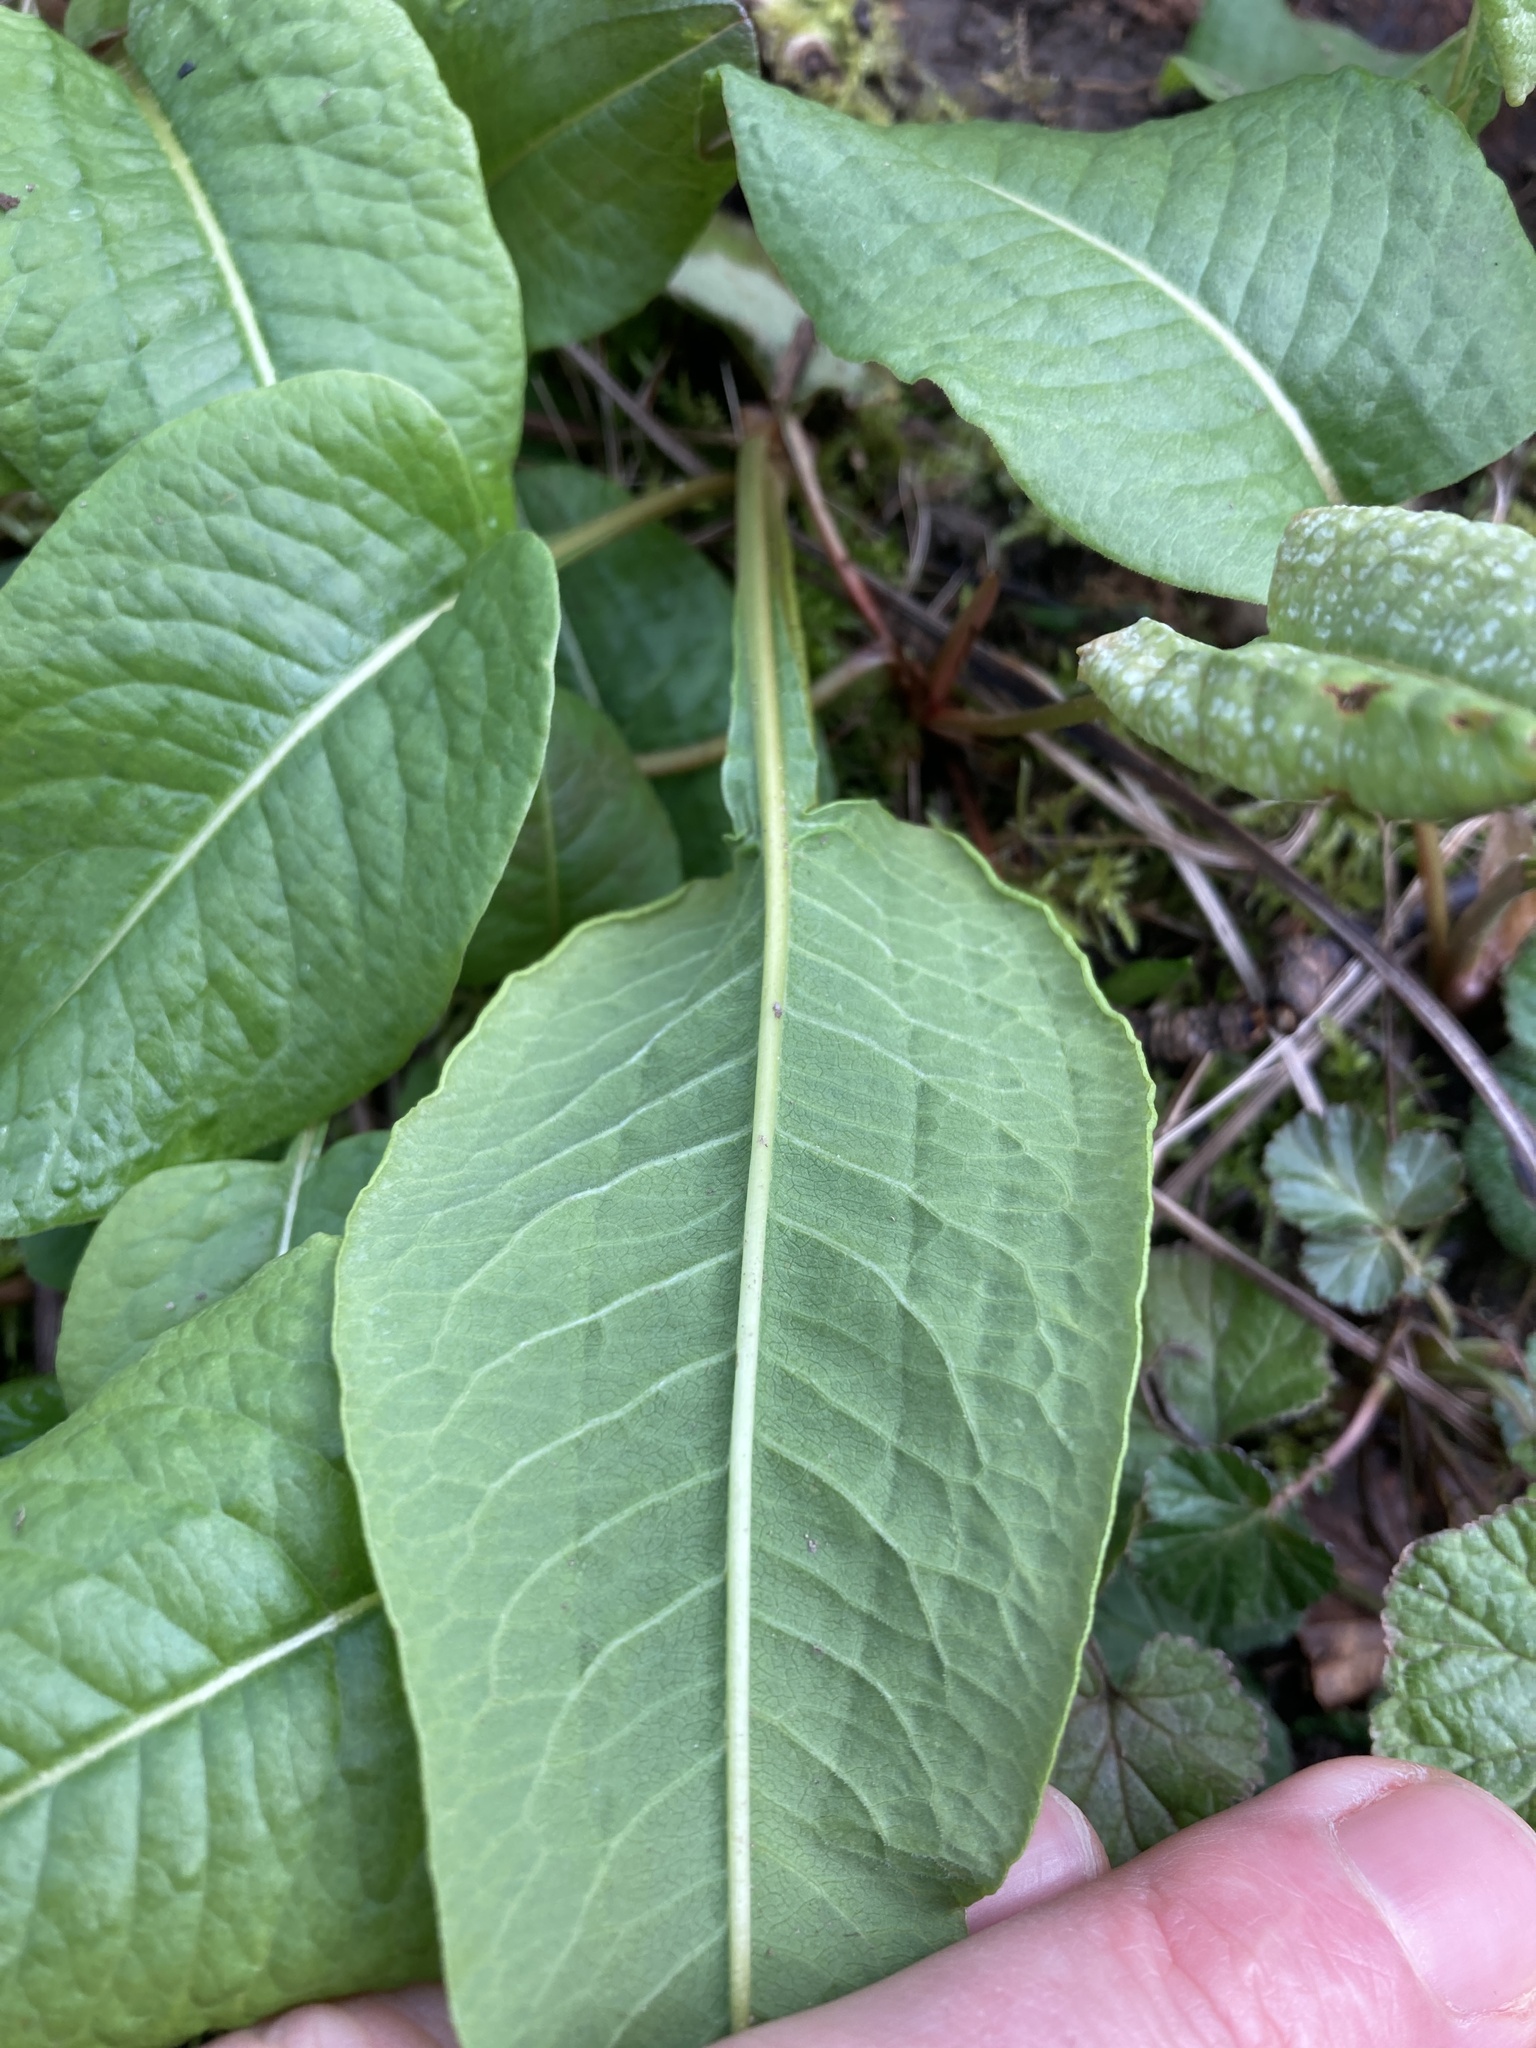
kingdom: Plantae
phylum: Tracheophyta
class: Magnoliopsida
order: Caryophyllales
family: Polygonaceae
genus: Bistorta
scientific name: Bistorta officinalis
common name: Common bistort
